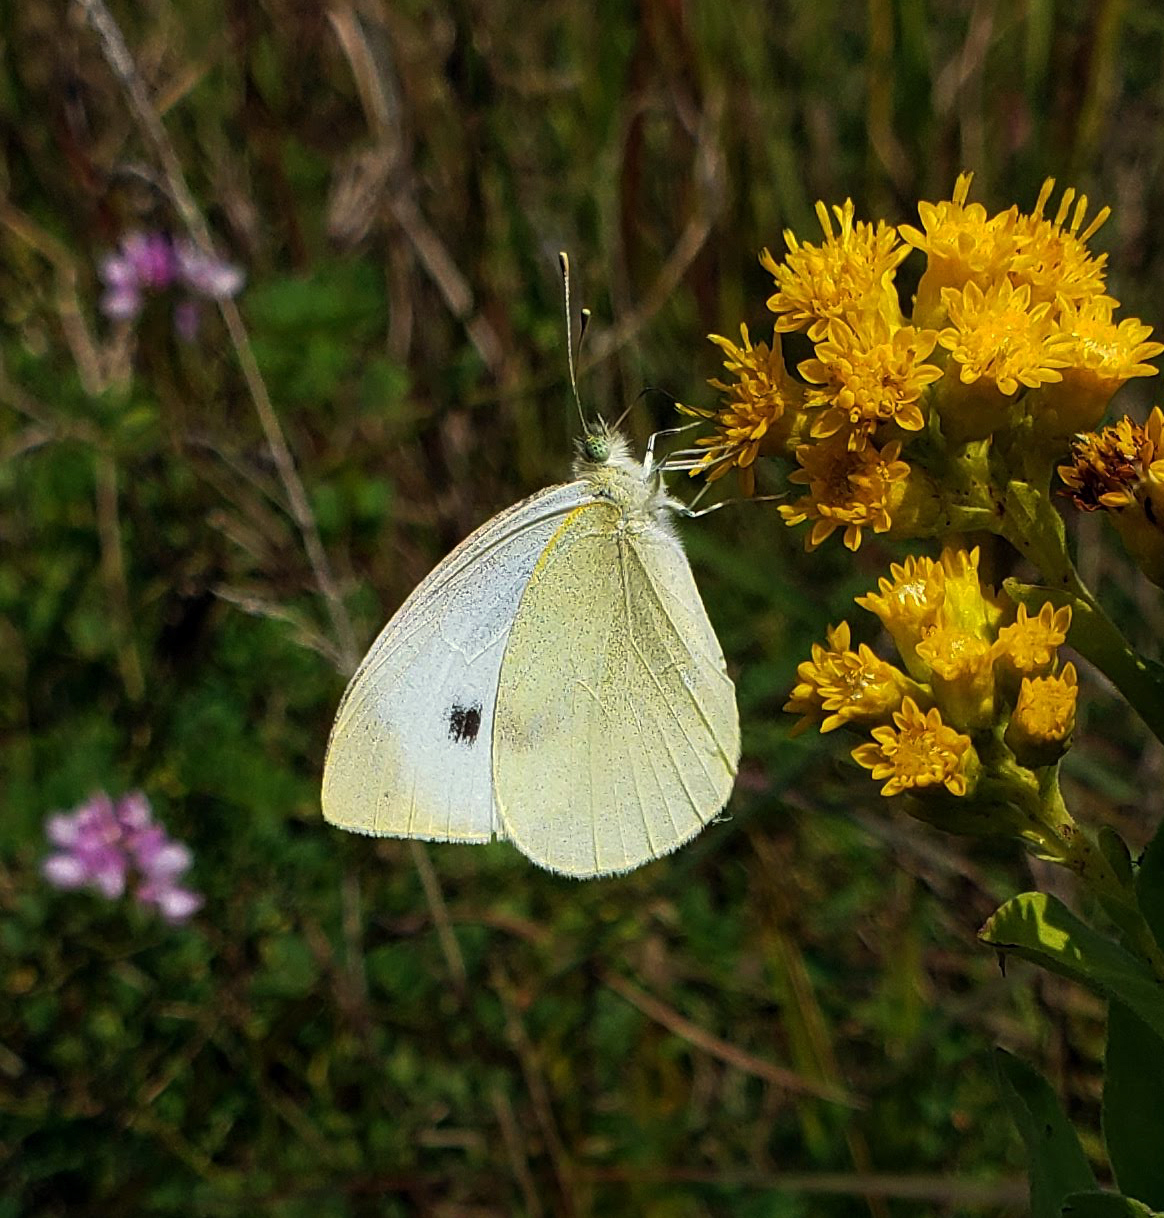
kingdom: Animalia
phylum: Arthropoda
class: Insecta
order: Lepidoptera
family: Pieridae
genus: Pieris
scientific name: Pieris rapae
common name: Small white
